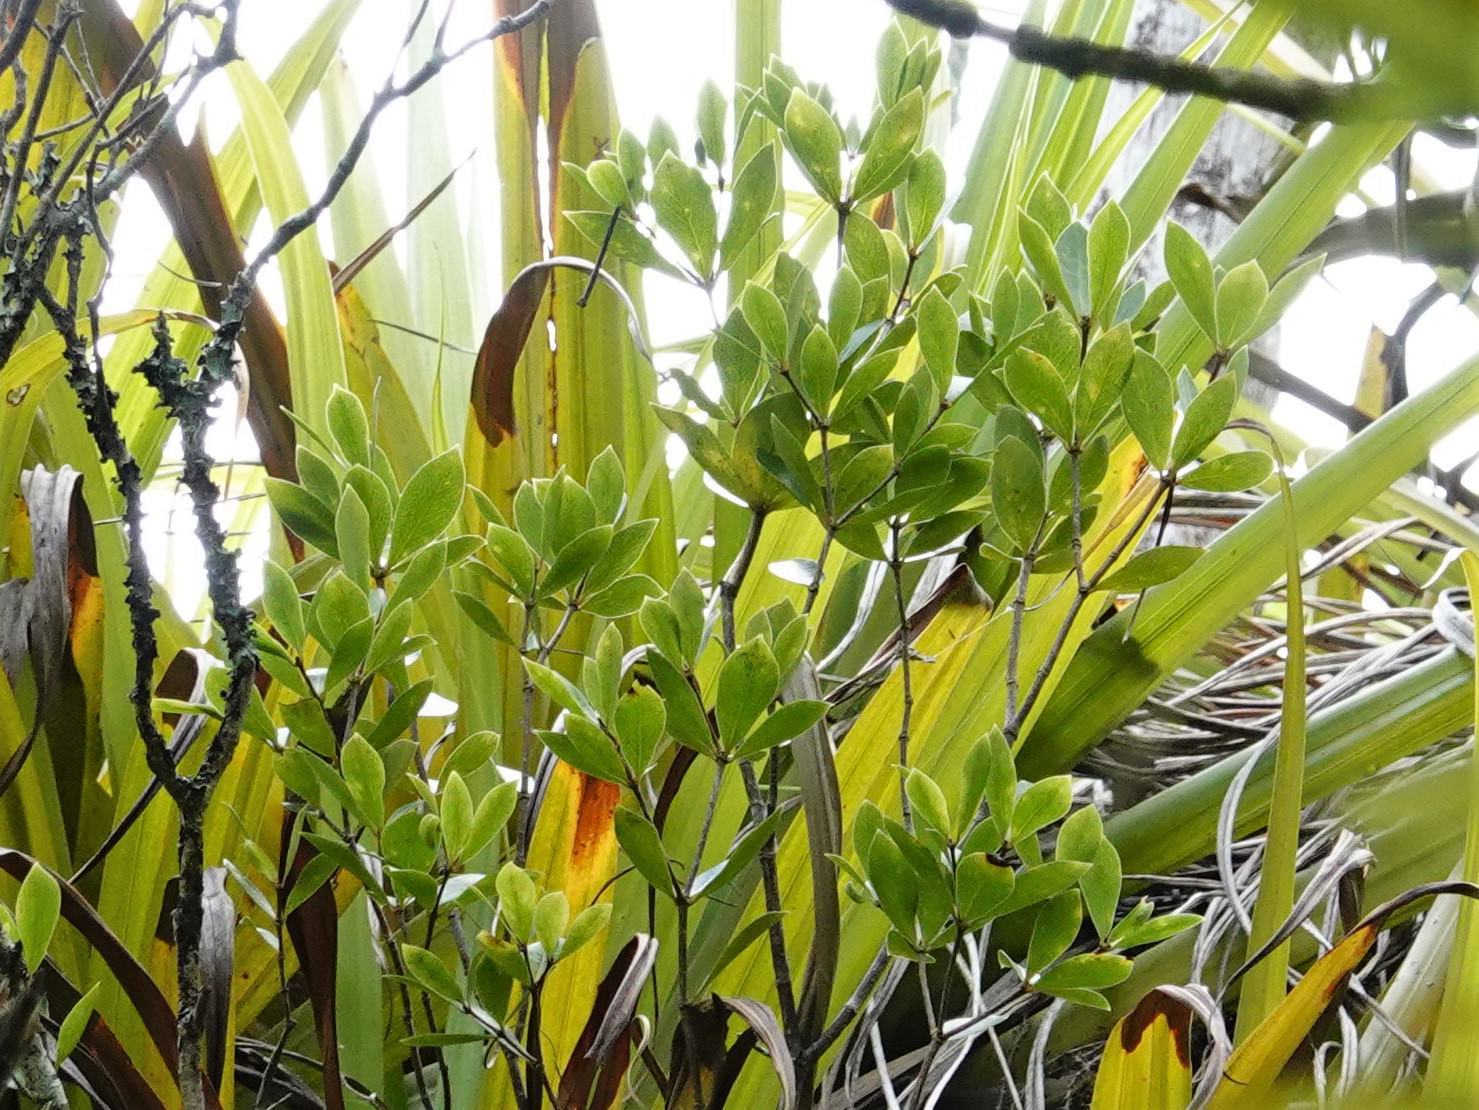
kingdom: Plantae
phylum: Tracheophyta
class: Magnoliopsida
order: Apiales
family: Pittosporaceae
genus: Pittosporum
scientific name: Pittosporum cornifolium
